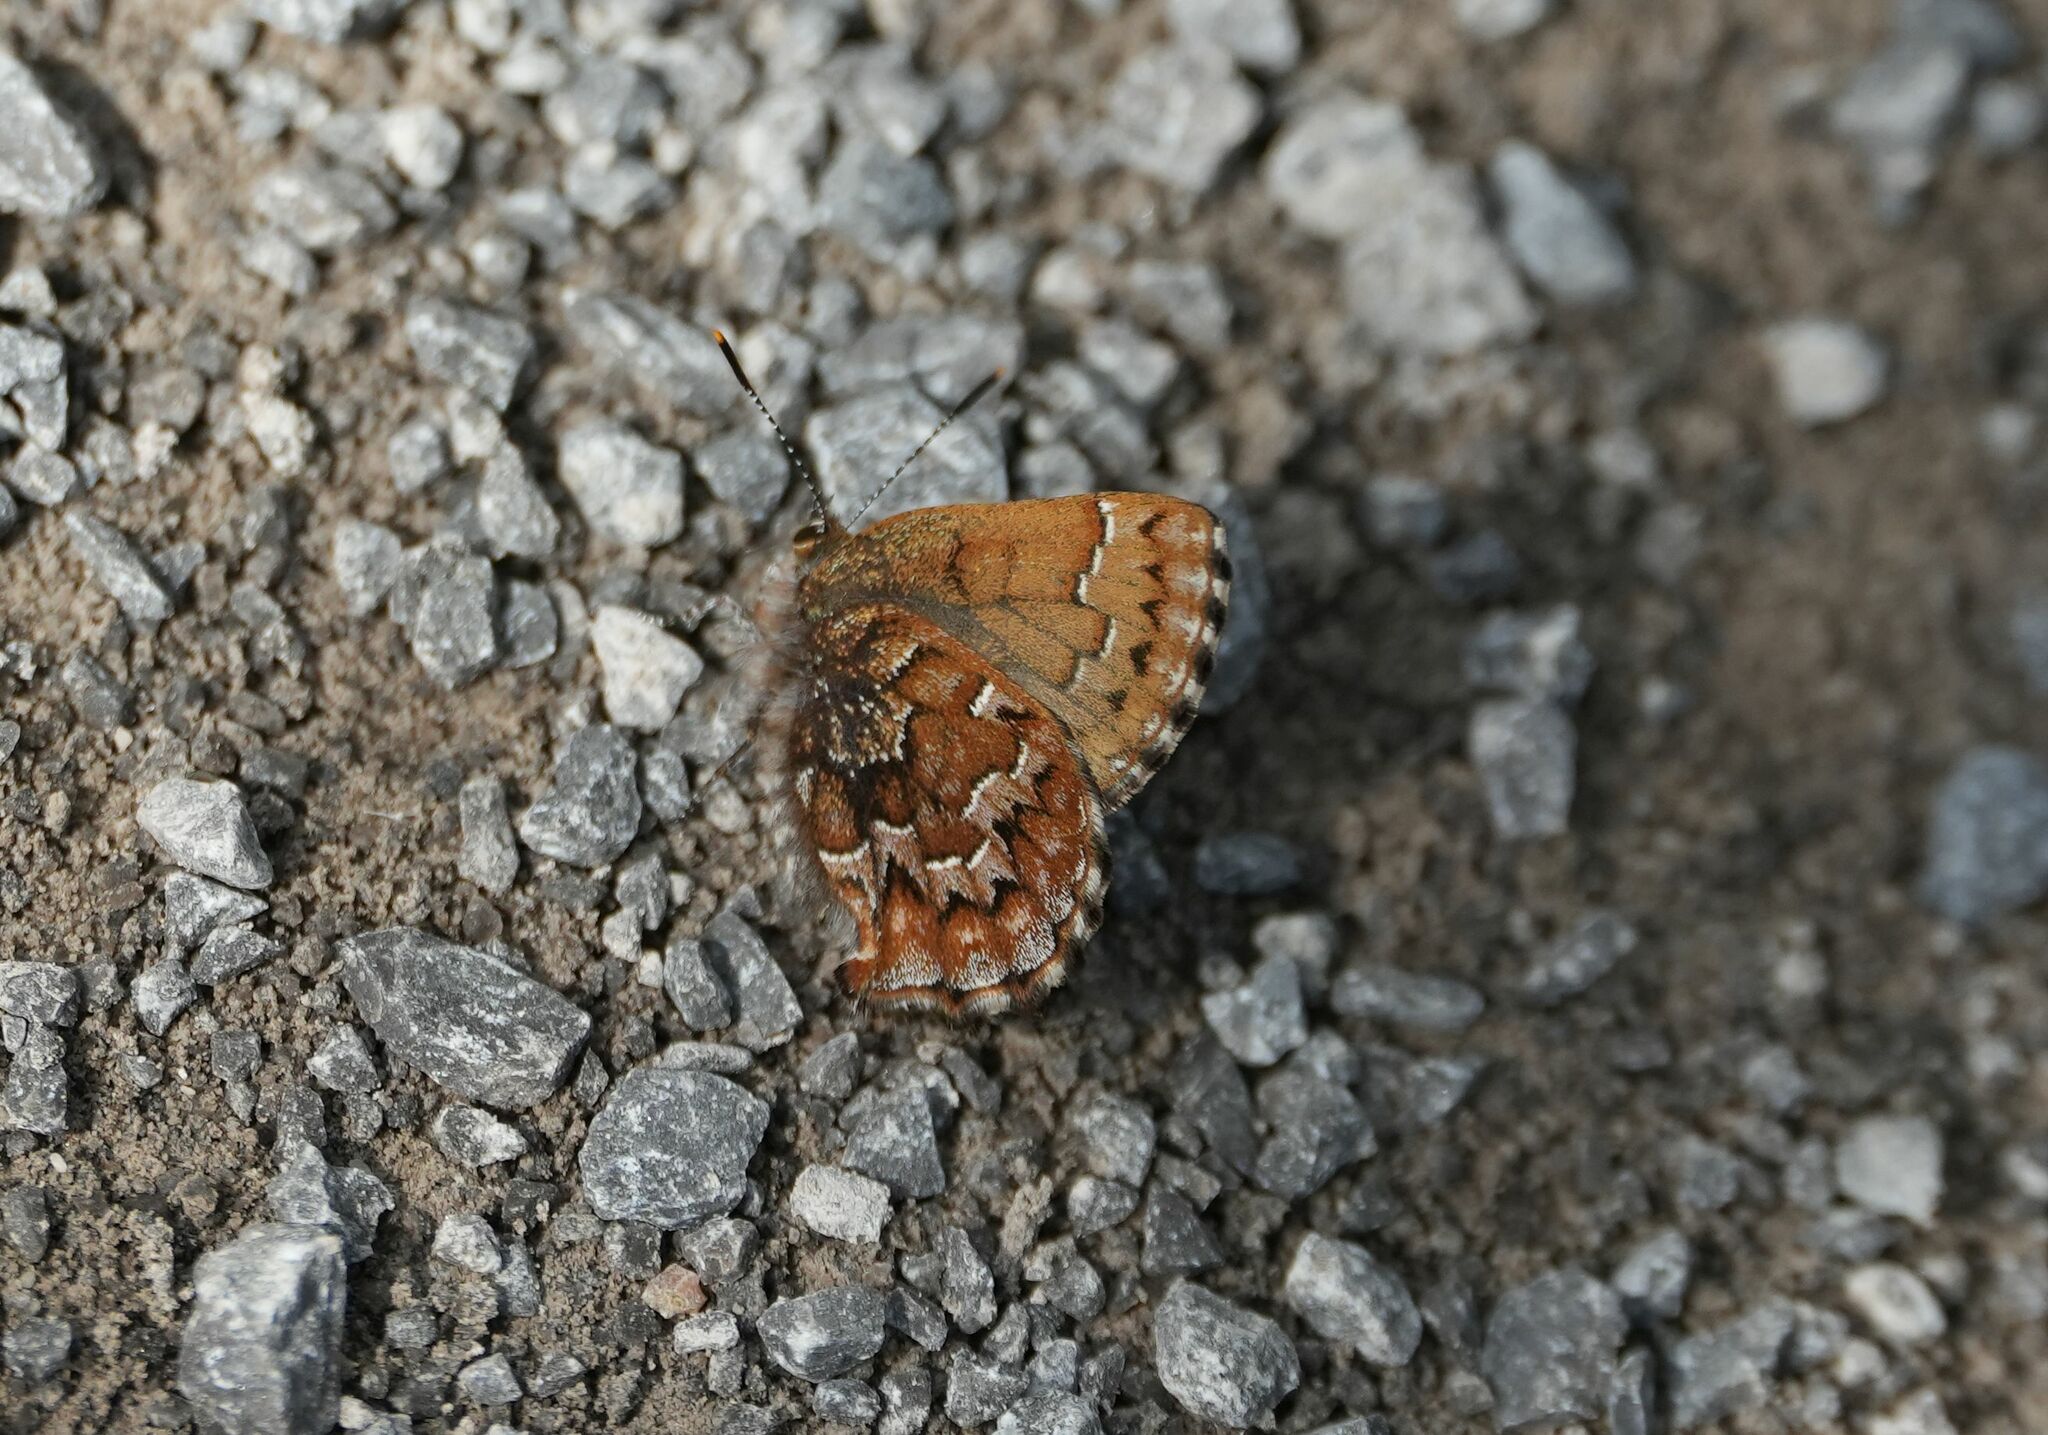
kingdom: Animalia
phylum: Arthropoda
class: Insecta
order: Lepidoptera
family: Lycaenidae
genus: Incisalia
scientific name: Incisalia niphon
